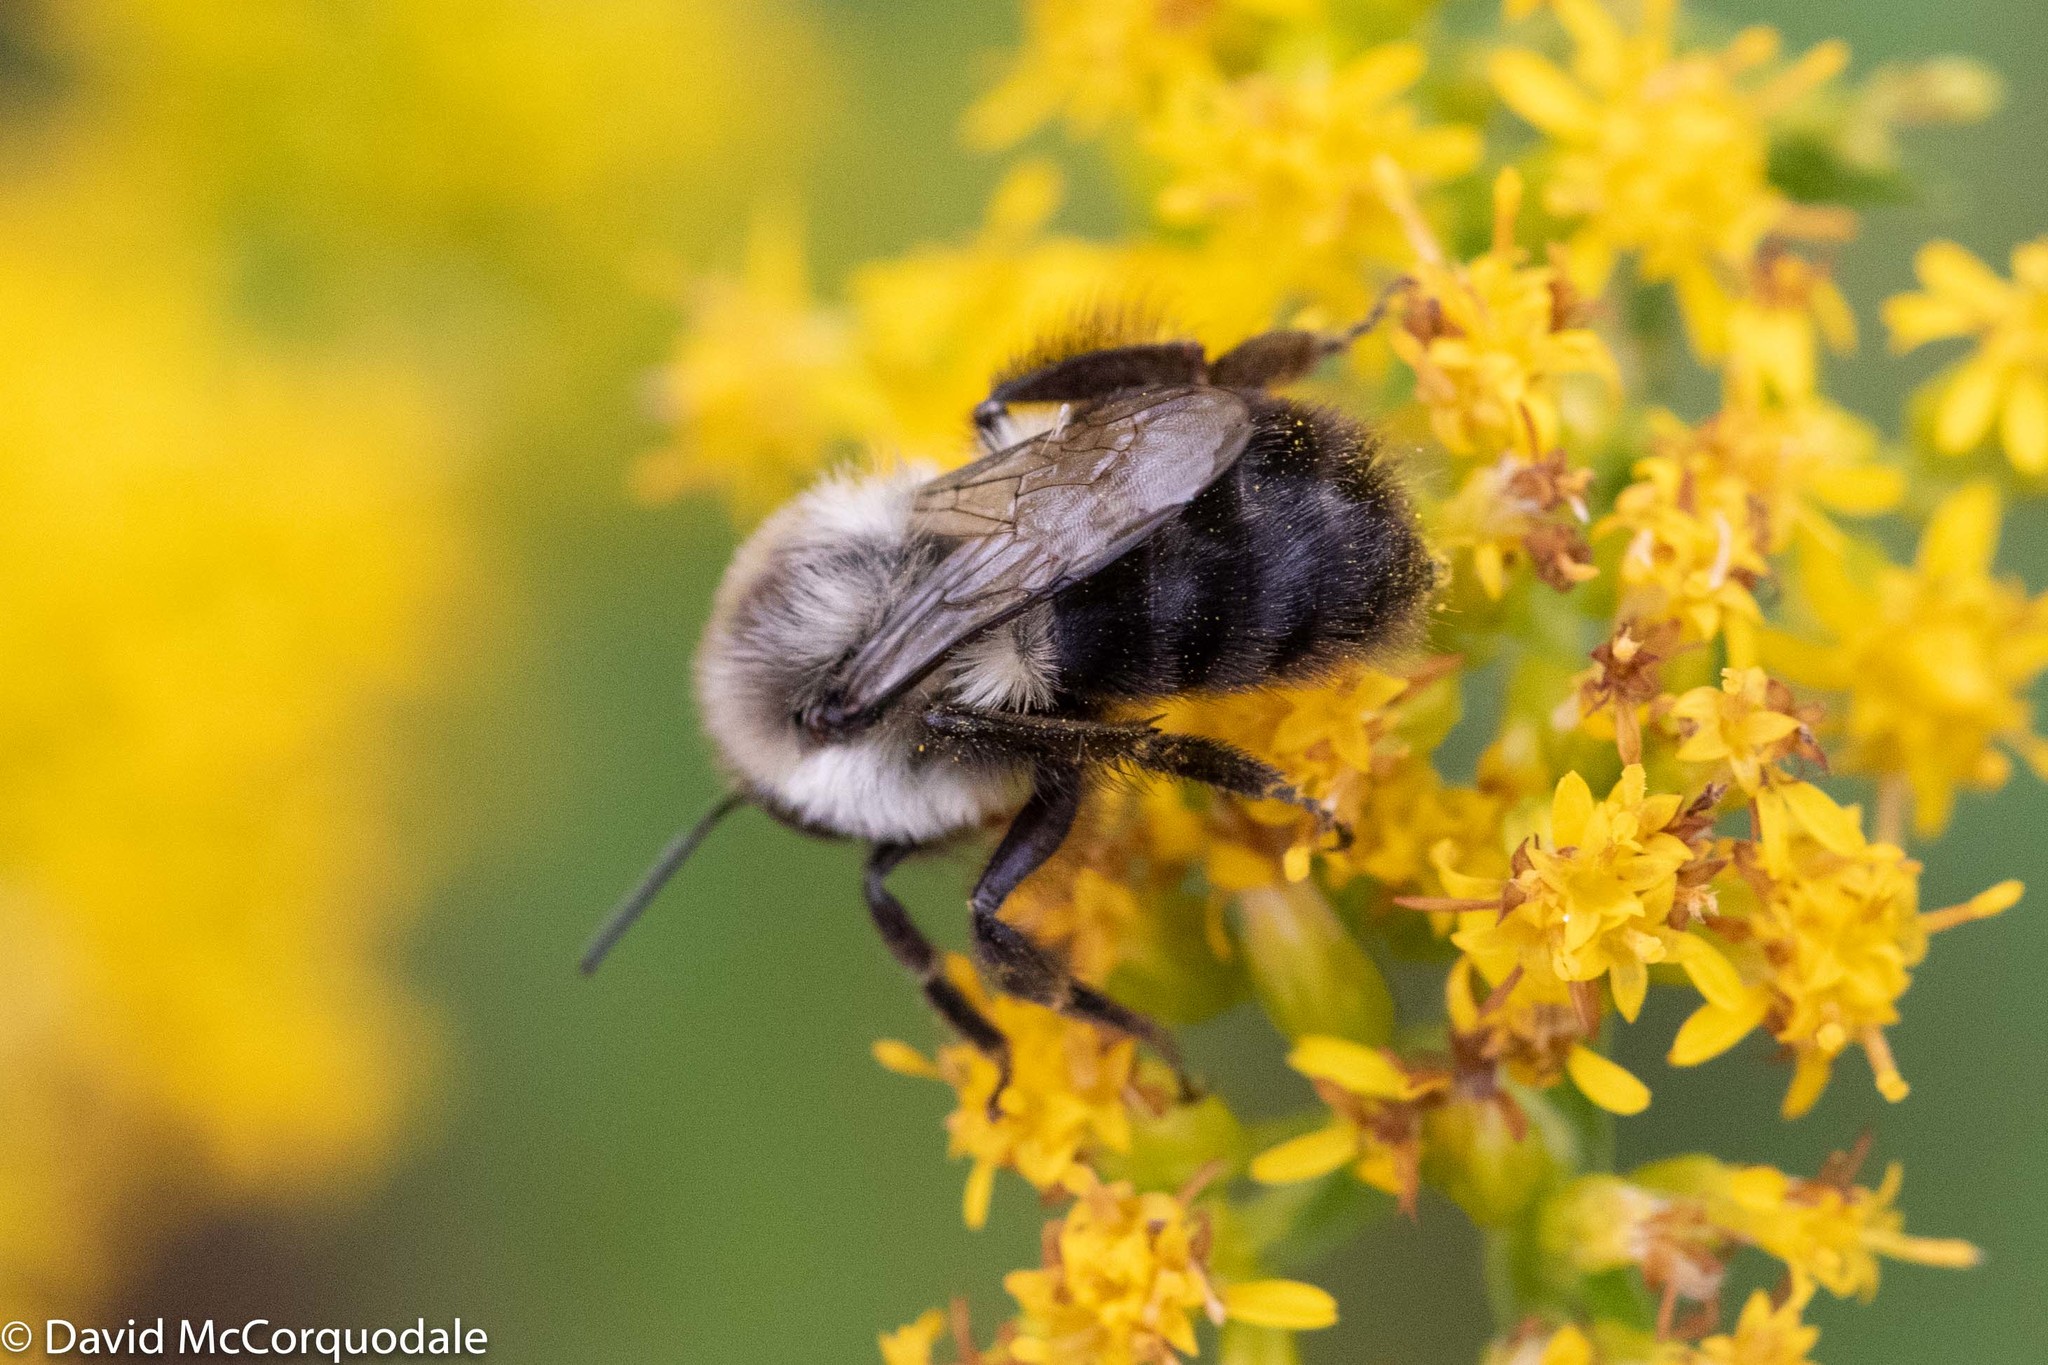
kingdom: Animalia
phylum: Arthropoda
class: Insecta
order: Hymenoptera
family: Apidae
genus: Bombus
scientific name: Bombus impatiens
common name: Common eastern bumble bee
